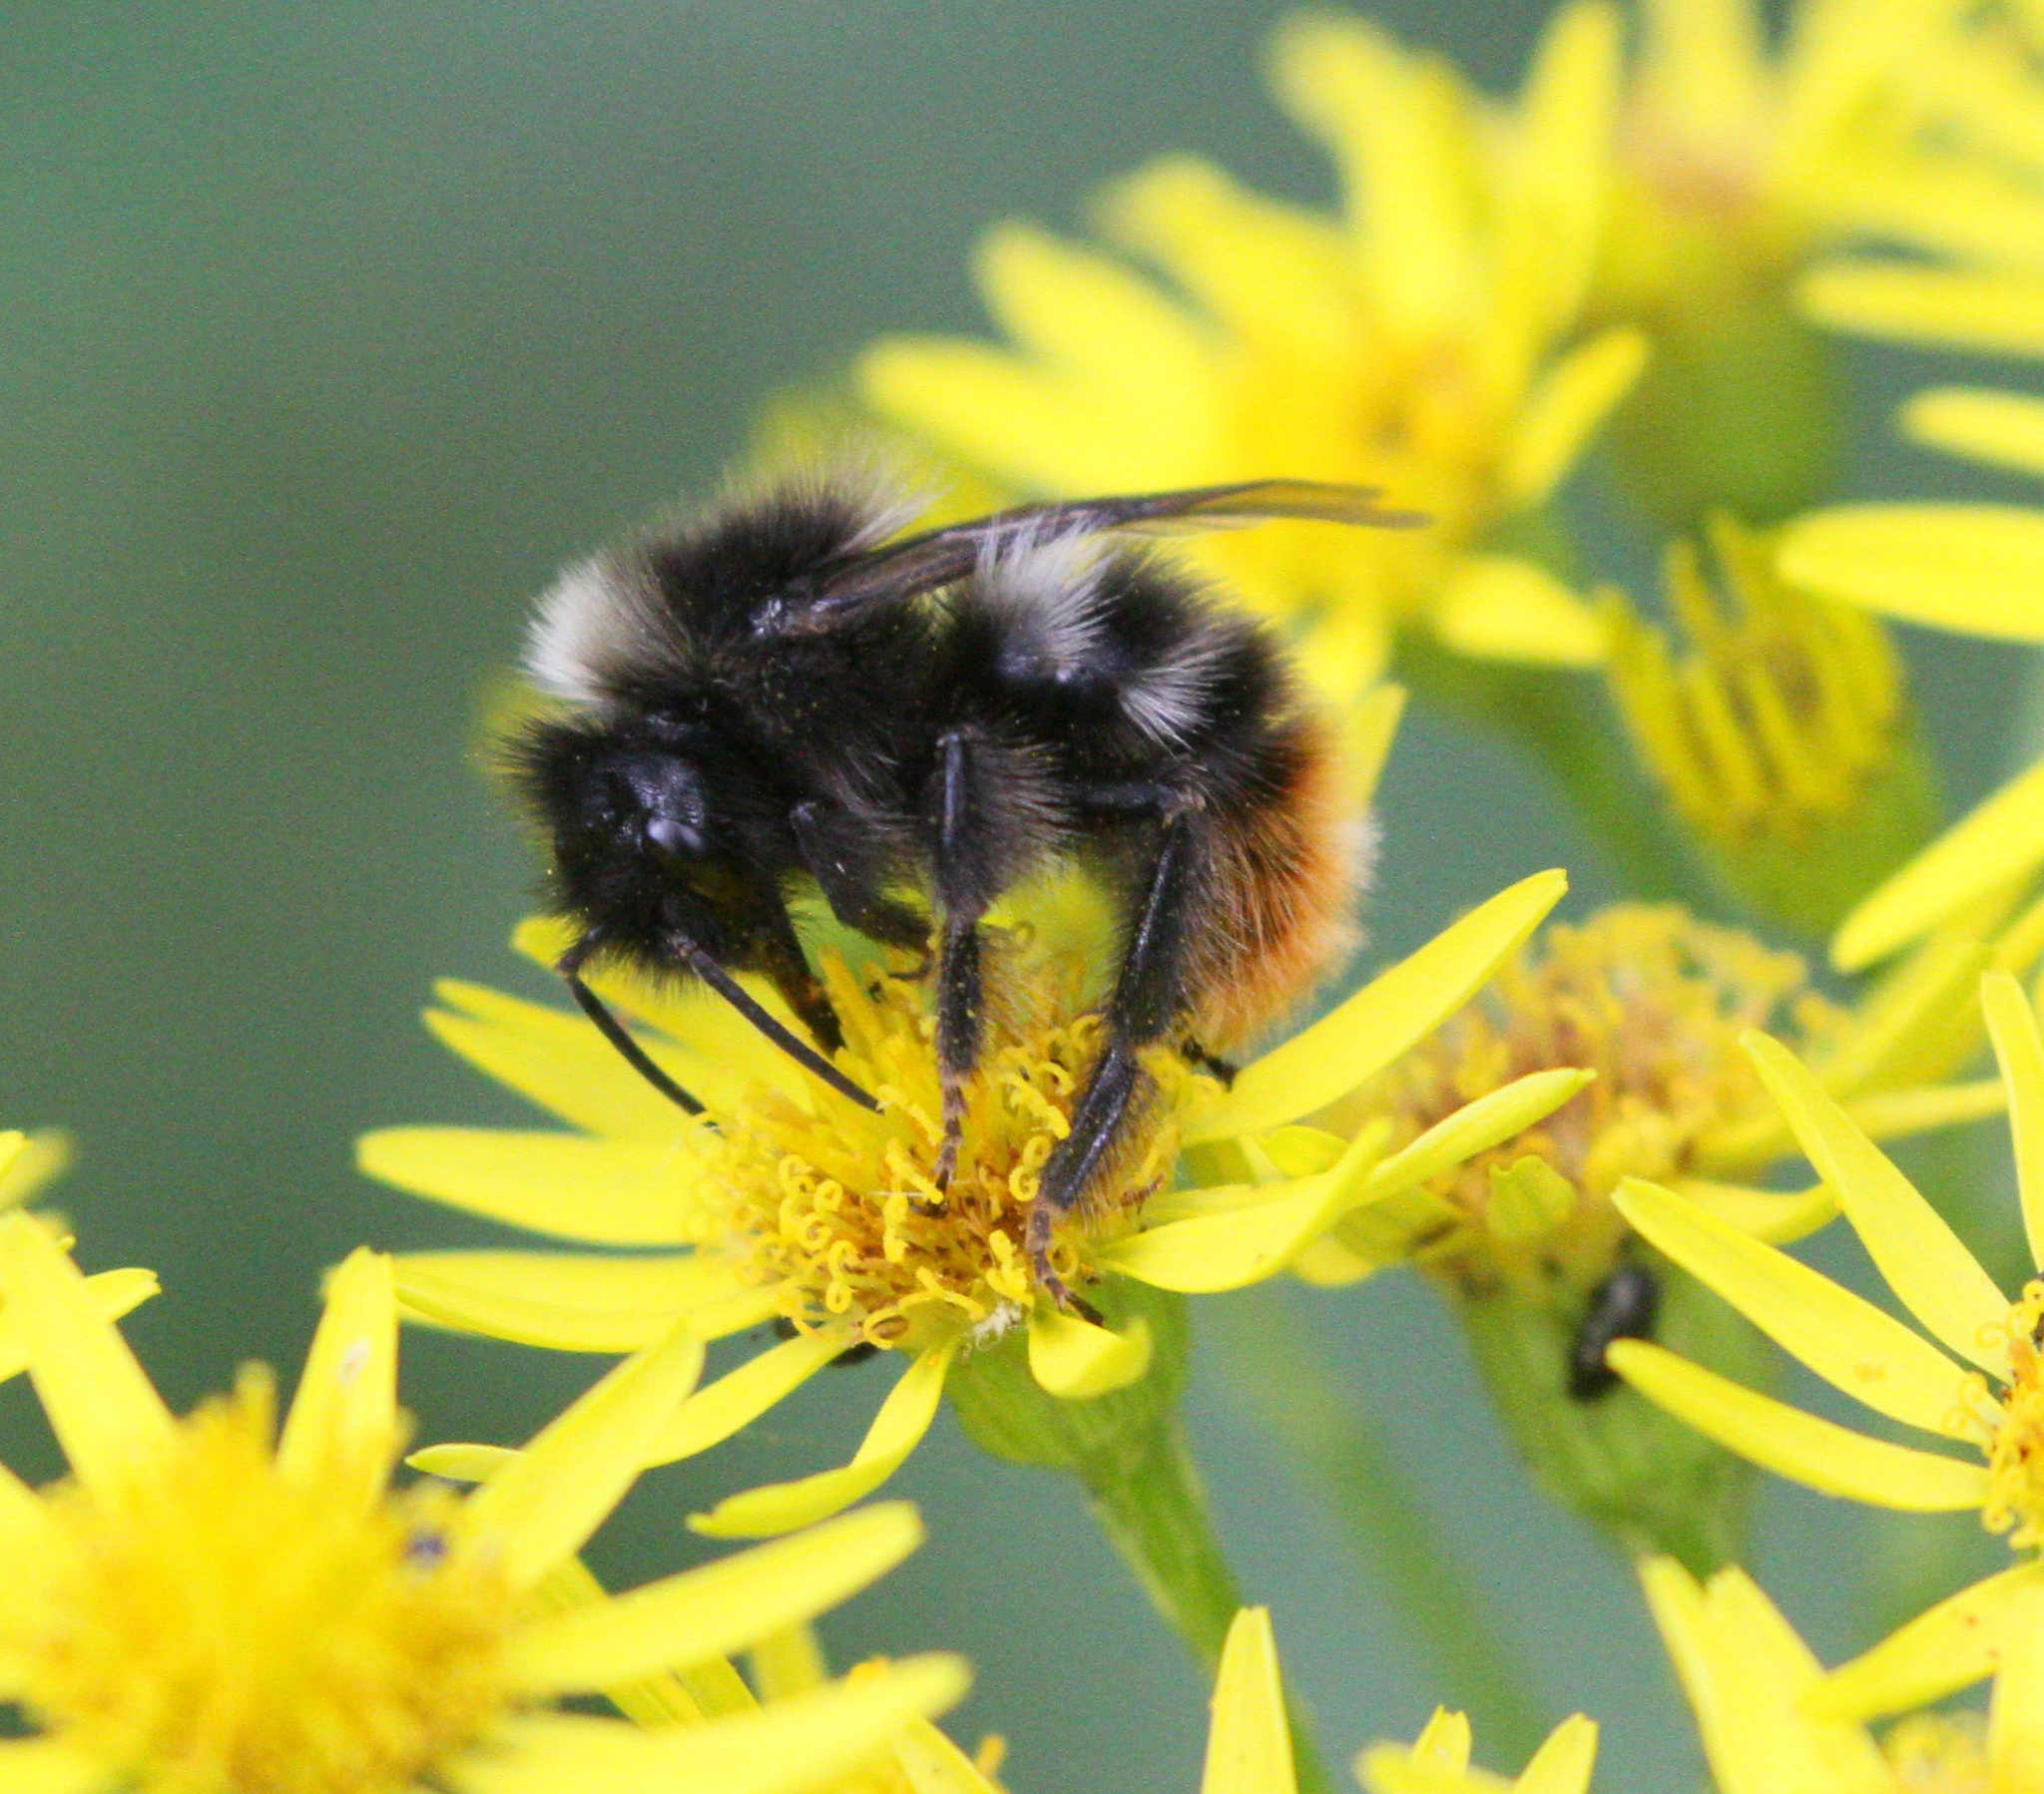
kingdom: Animalia
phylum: Arthropoda
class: Insecta
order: Hymenoptera
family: Apidae
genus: Bombus
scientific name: Bombus rupestris
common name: Hill cuckoo-bee
